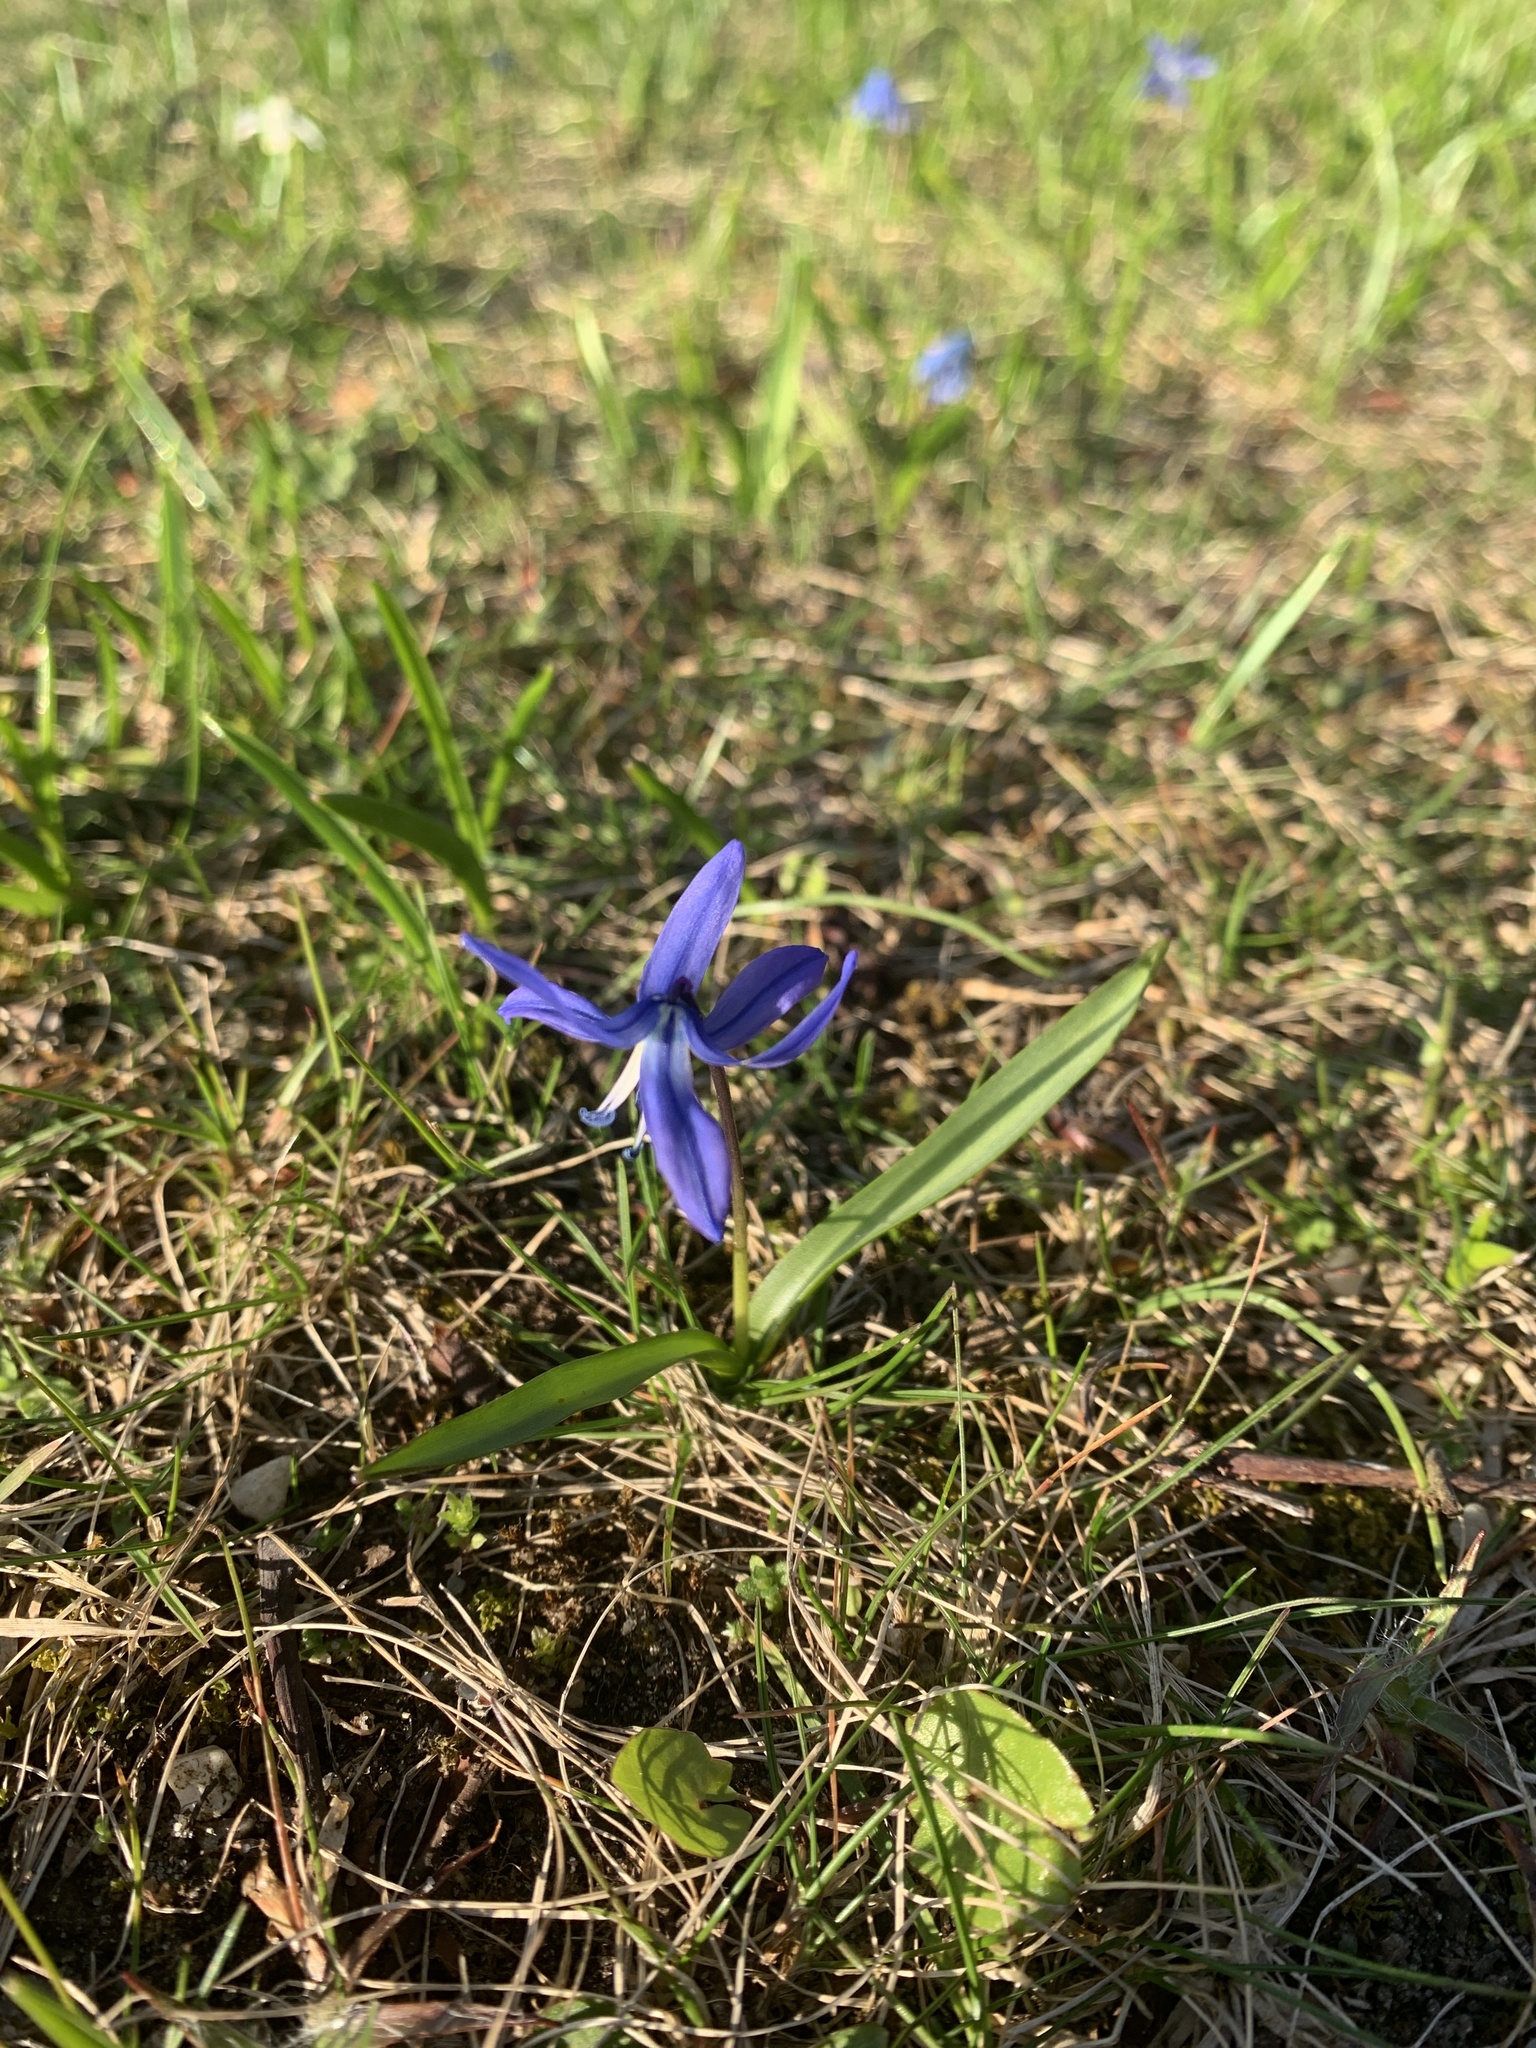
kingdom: Plantae
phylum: Tracheophyta
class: Liliopsida
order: Asparagales
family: Asparagaceae
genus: Scilla
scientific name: Scilla siberica
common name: Siberian squill
